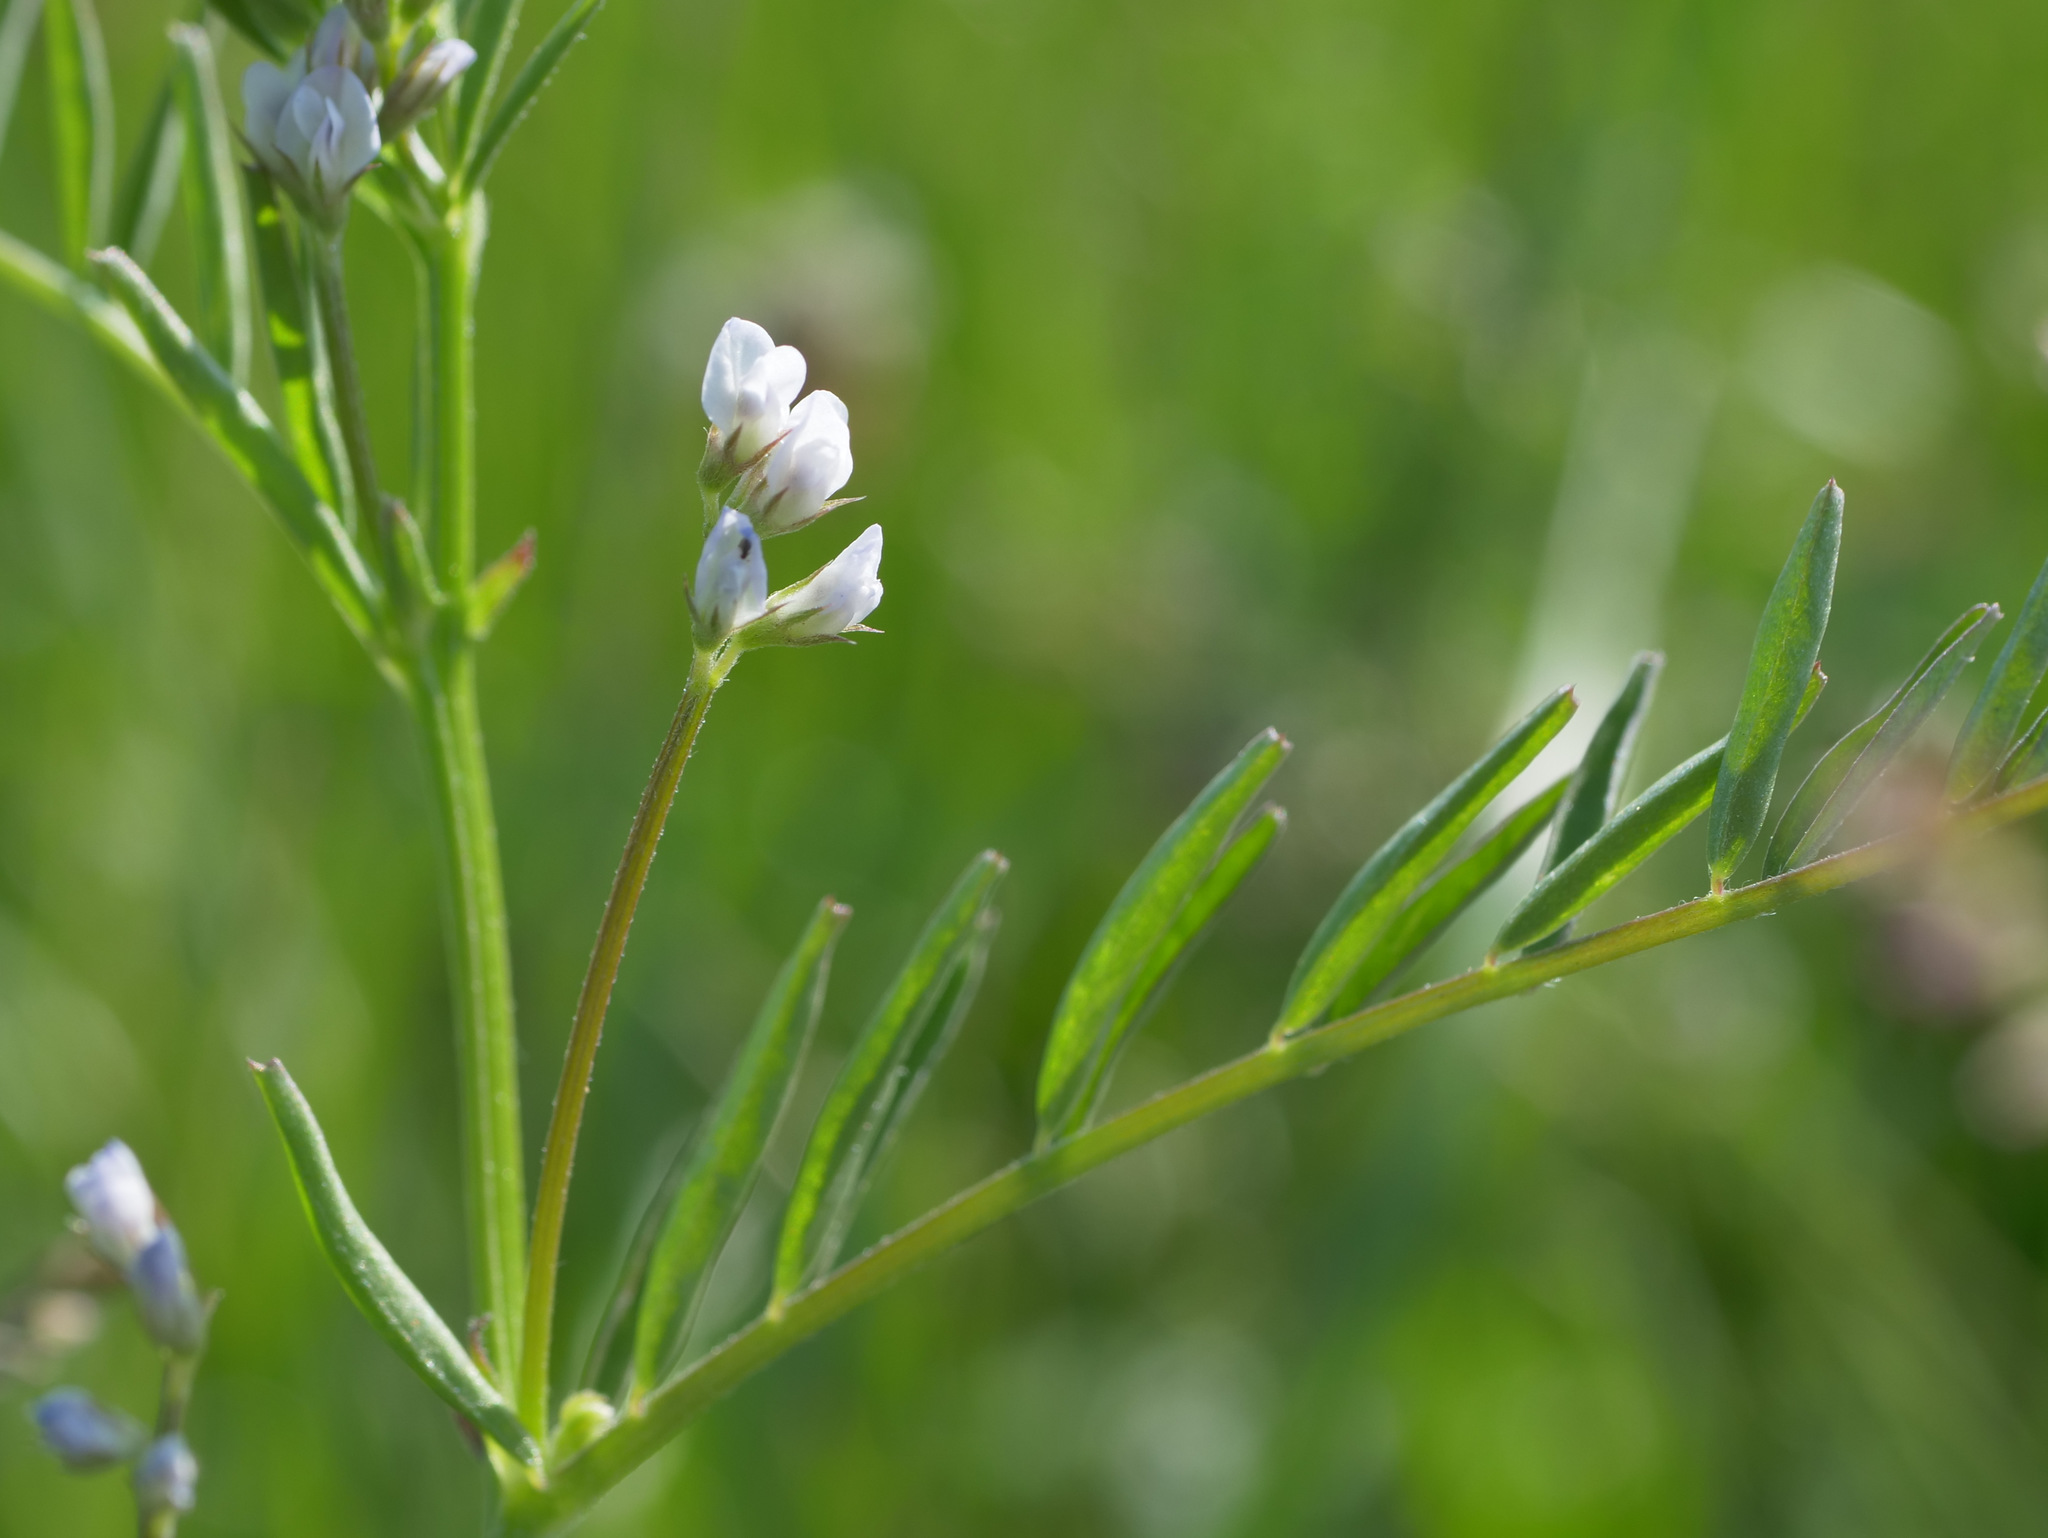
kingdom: Plantae
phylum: Tracheophyta
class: Magnoliopsida
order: Fabales
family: Fabaceae
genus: Vicia
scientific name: Vicia hirsuta
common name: Tiny vetch
